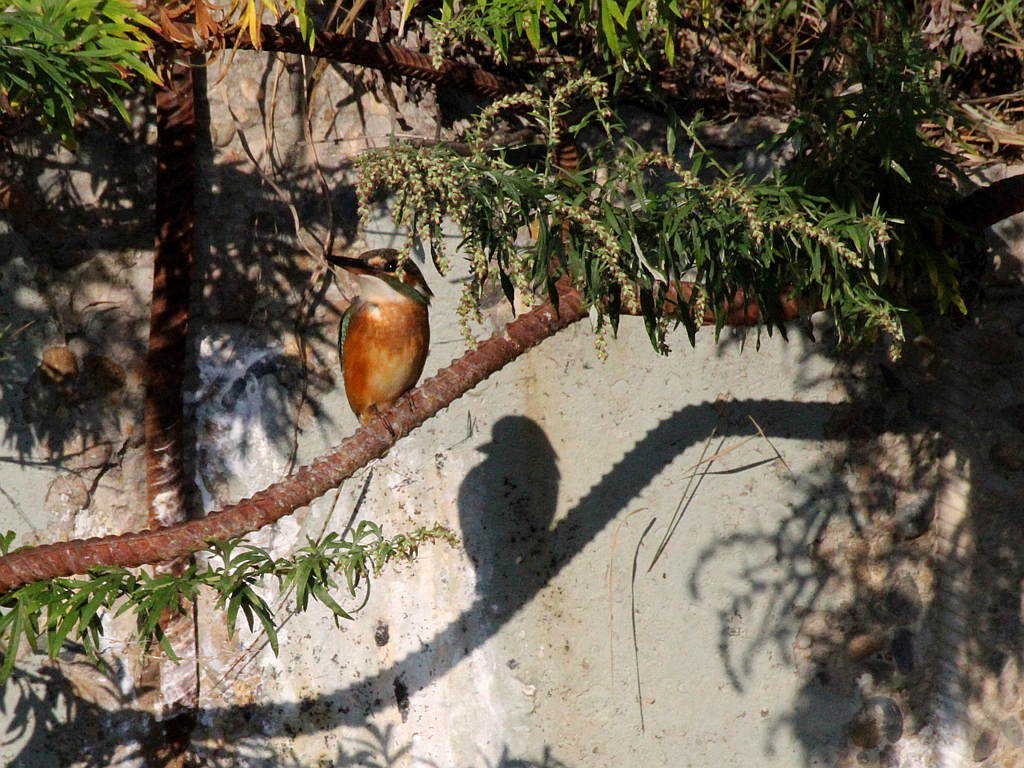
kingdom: Animalia
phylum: Chordata
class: Aves
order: Coraciiformes
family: Alcedinidae
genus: Alcedo
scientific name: Alcedo atthis
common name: Common kingfisher
